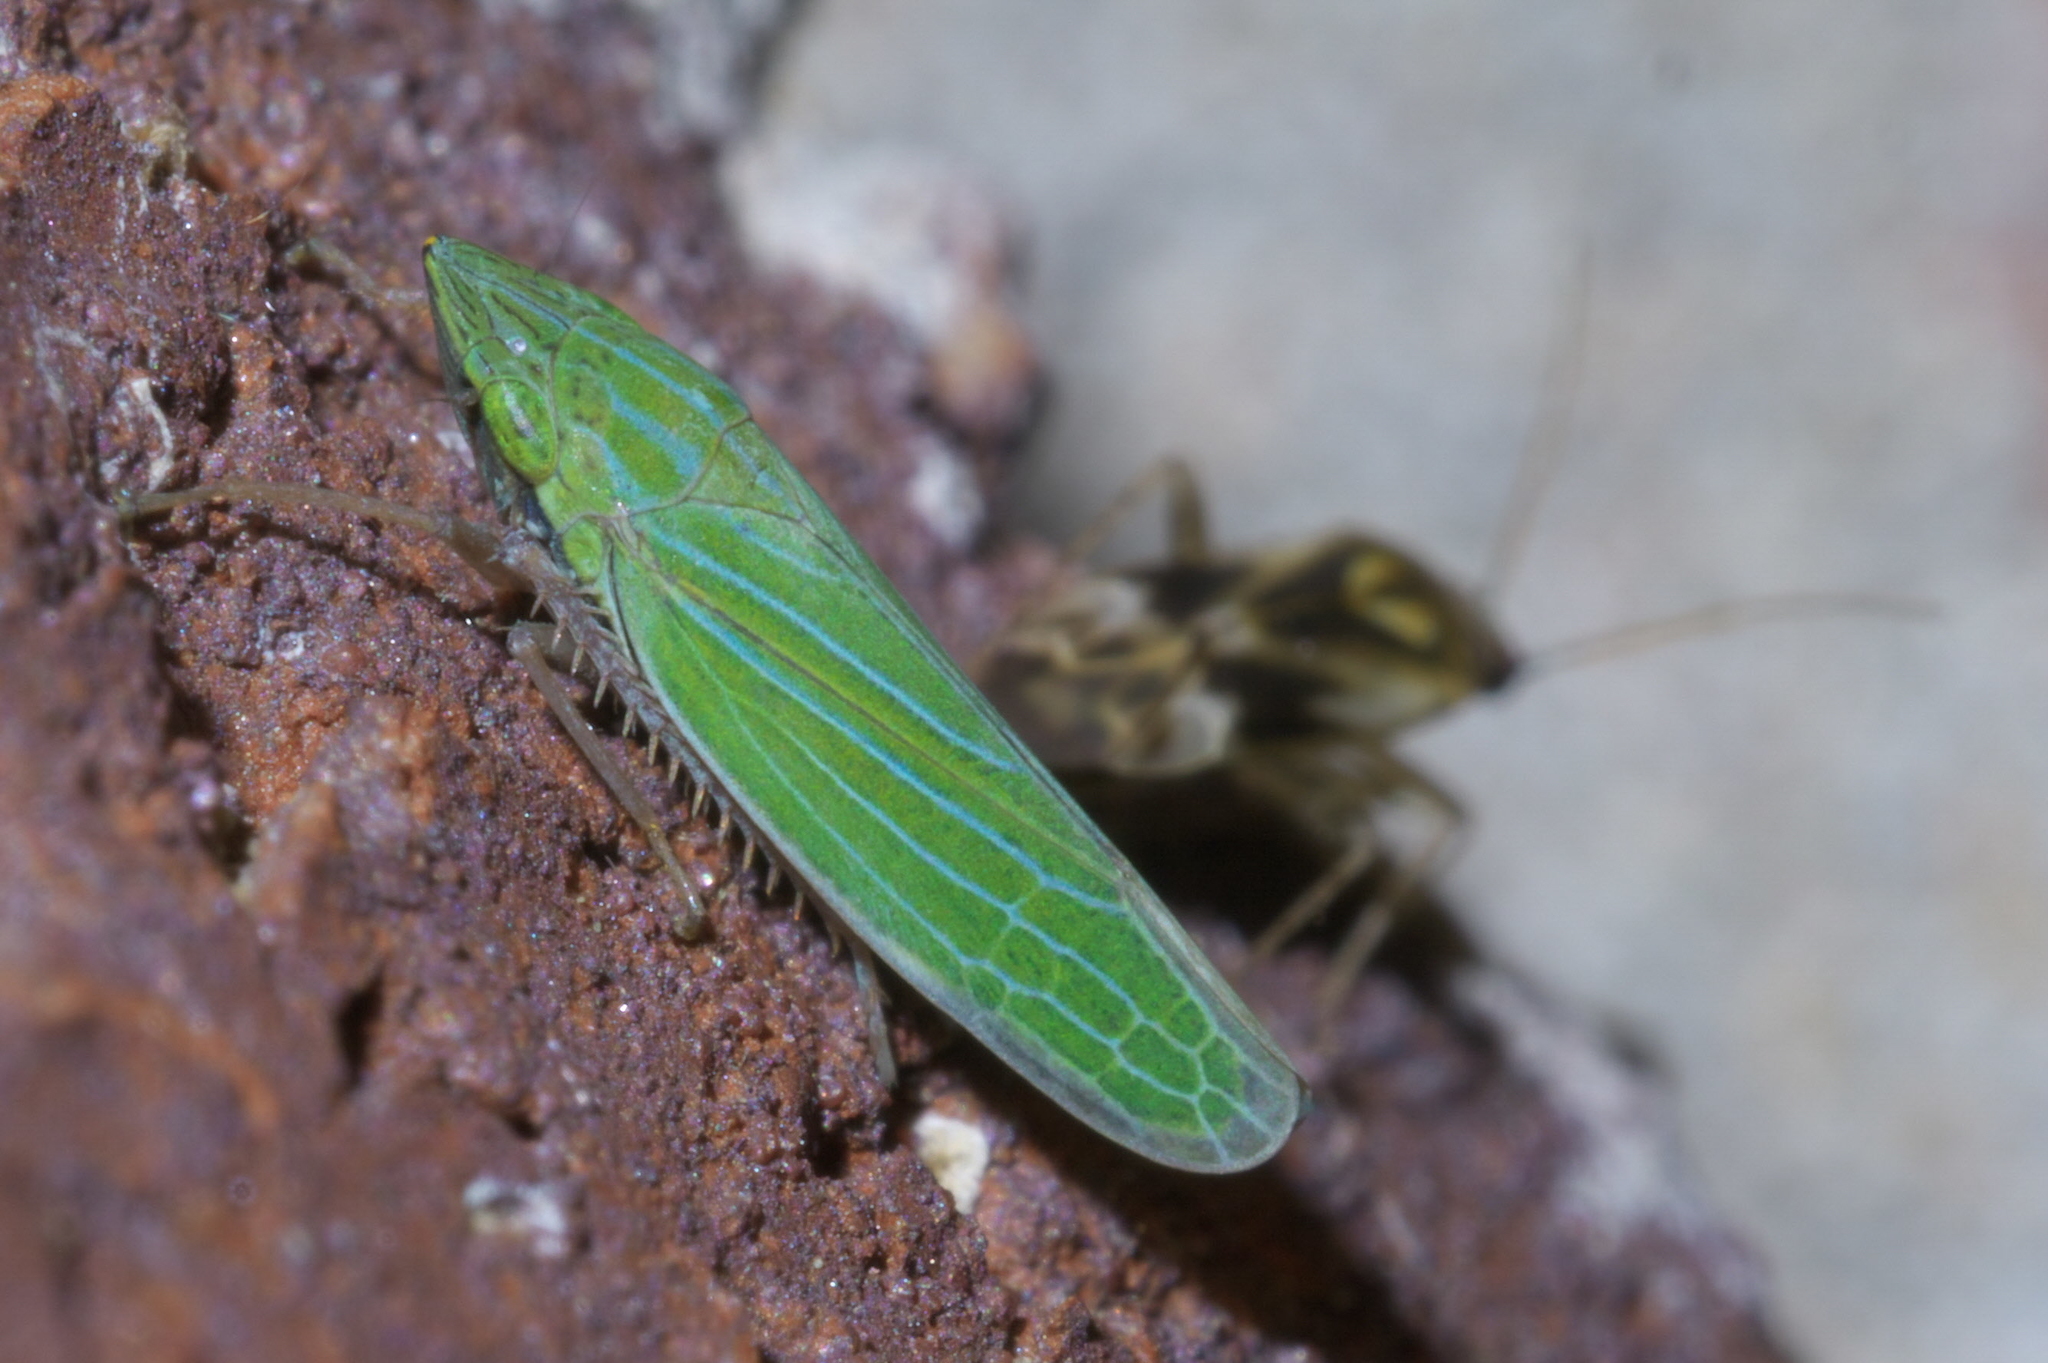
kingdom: Animalia
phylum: Arthropoda
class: Insecta
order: Hemiptera
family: Cicadellidae
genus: Draeculacephala
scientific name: Draeculacephala robinsoni
